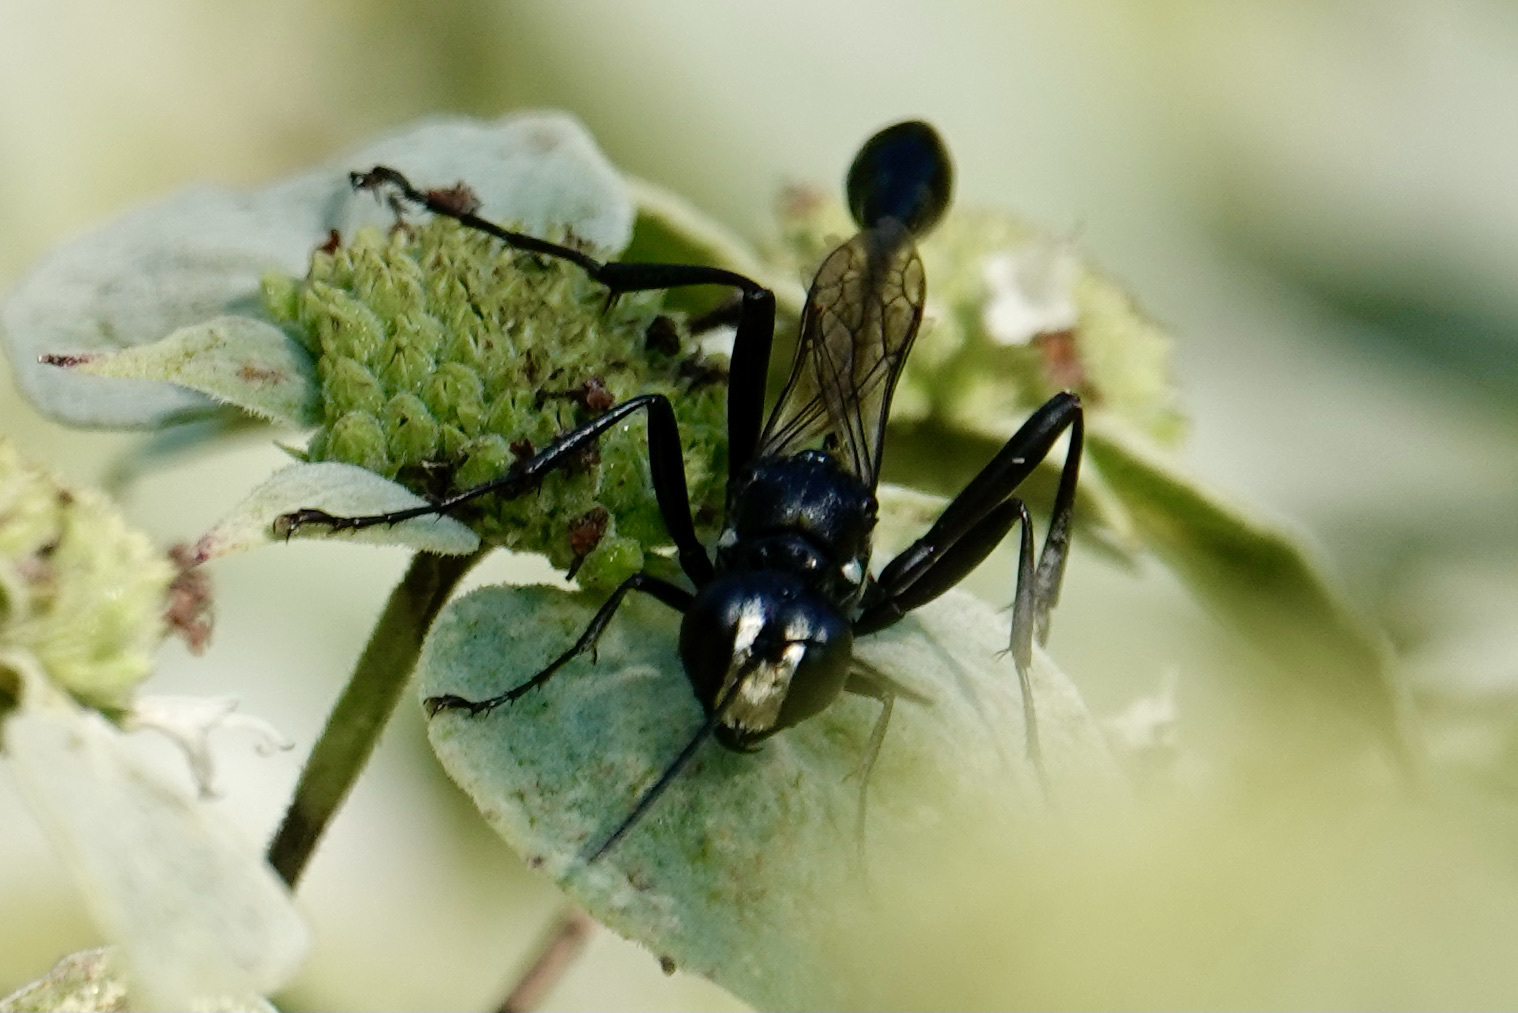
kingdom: Animalia
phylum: Arthropoda
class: Insecta
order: Hymenoptera
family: Sphecidae
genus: Eremnophila
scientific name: Eremnophila aureonotata
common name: Gold-marked thread-waisted wasp
